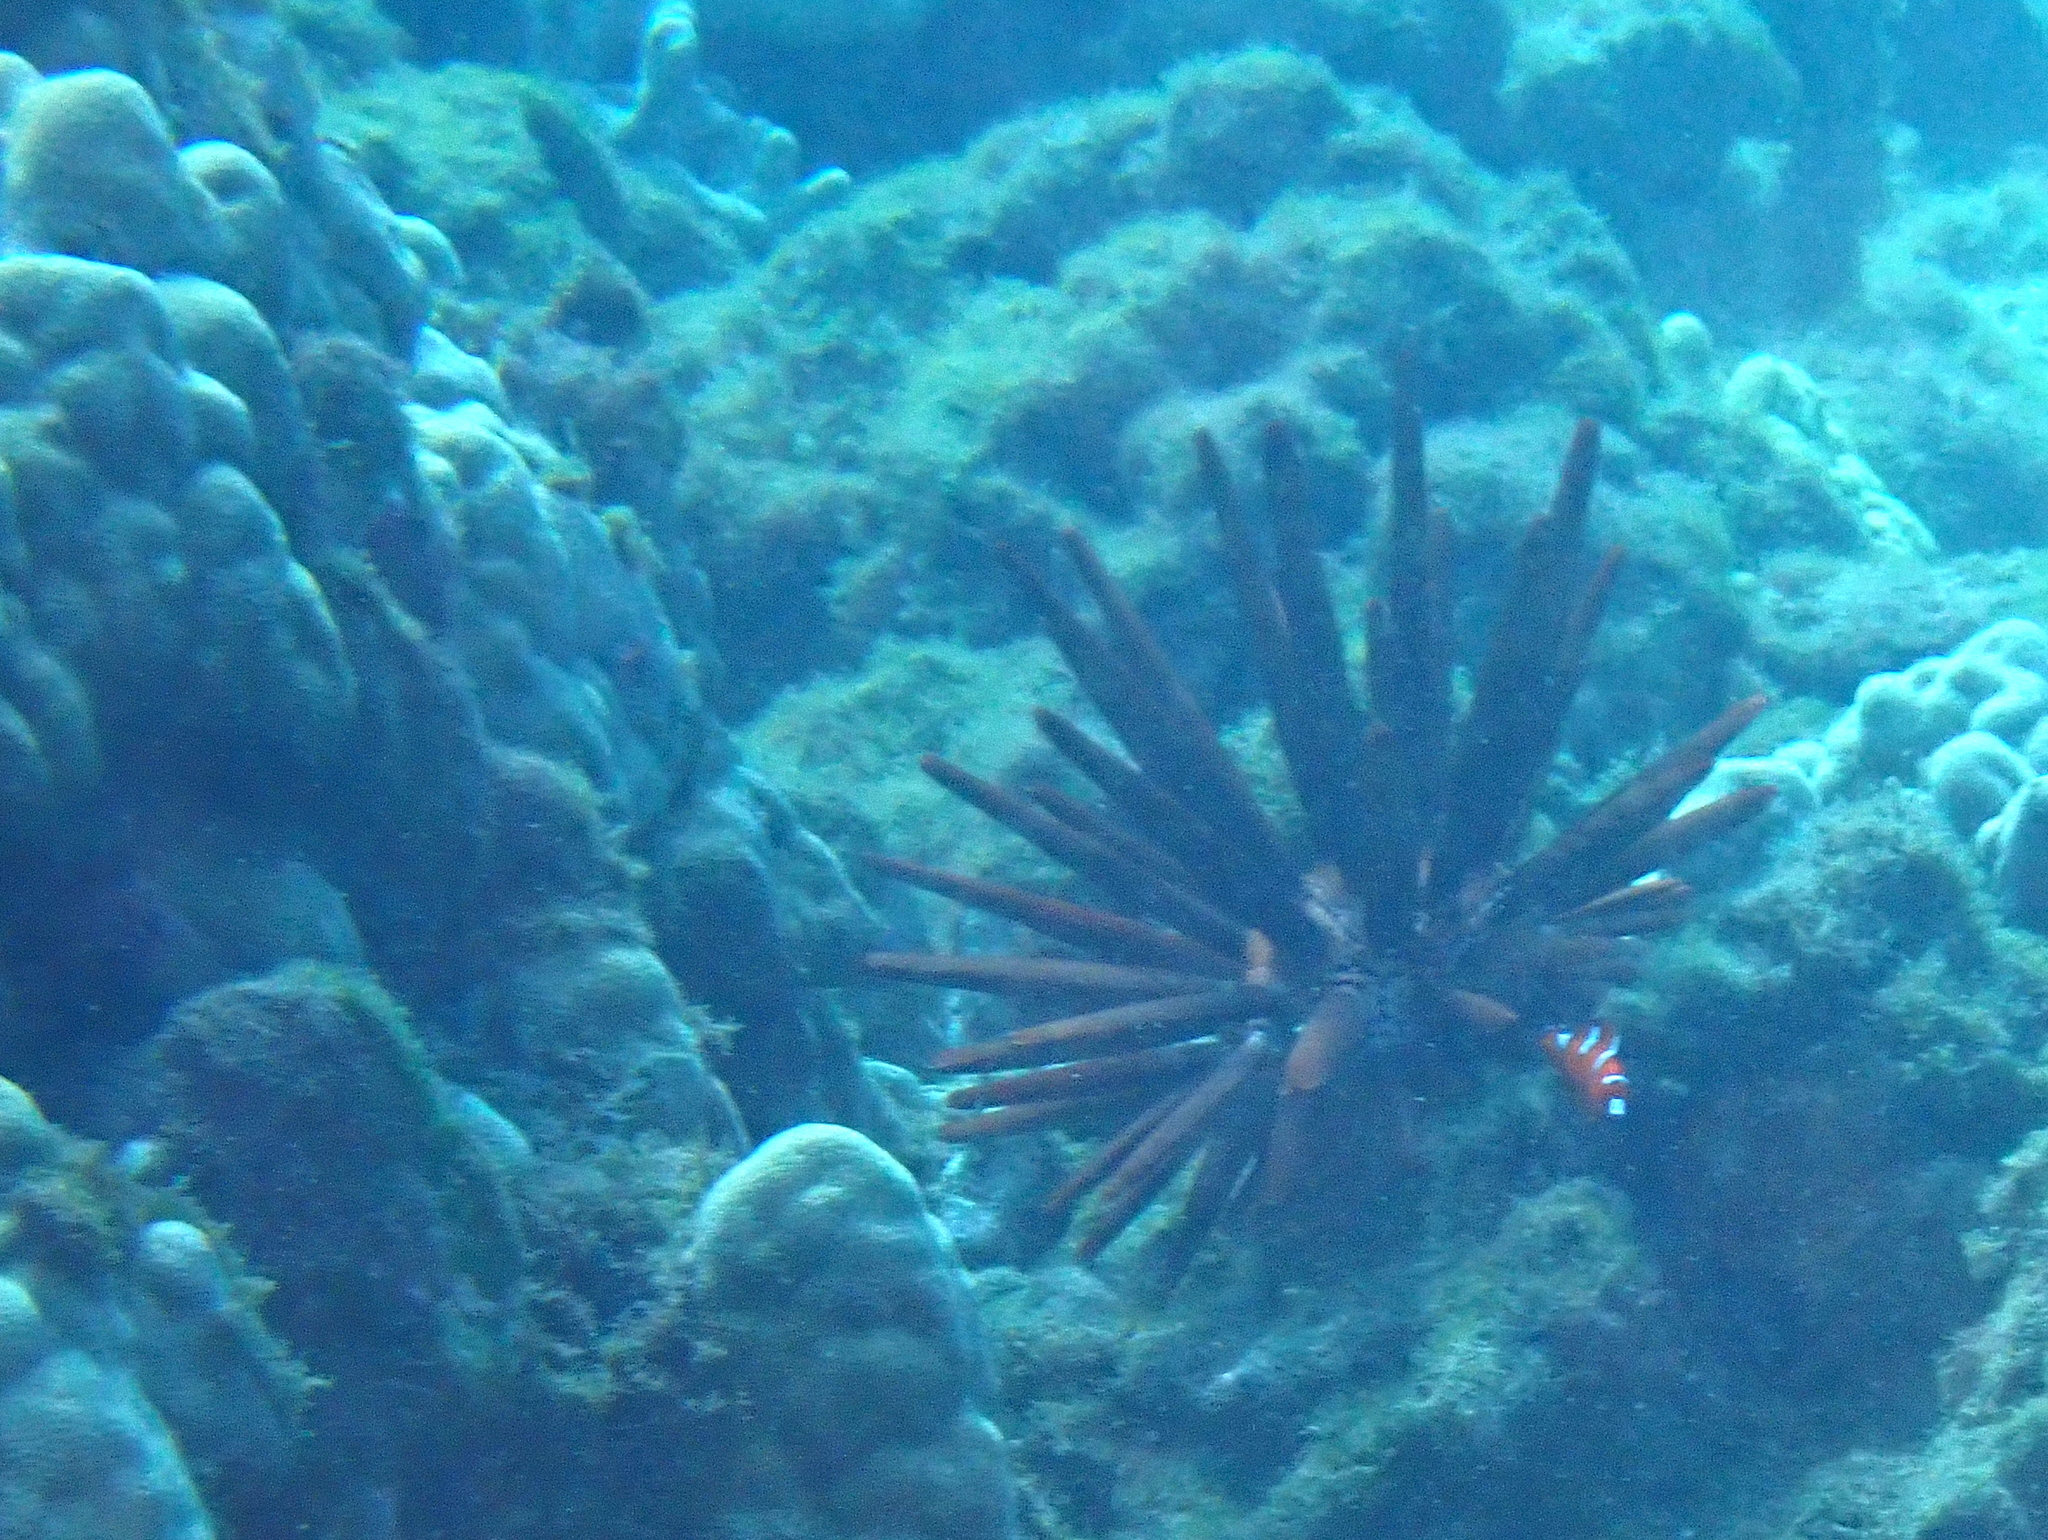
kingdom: Animalia
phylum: Chordata
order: Perciformes
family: Labridae
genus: Coris
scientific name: Coris gaimard
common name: Yellowtail coris
